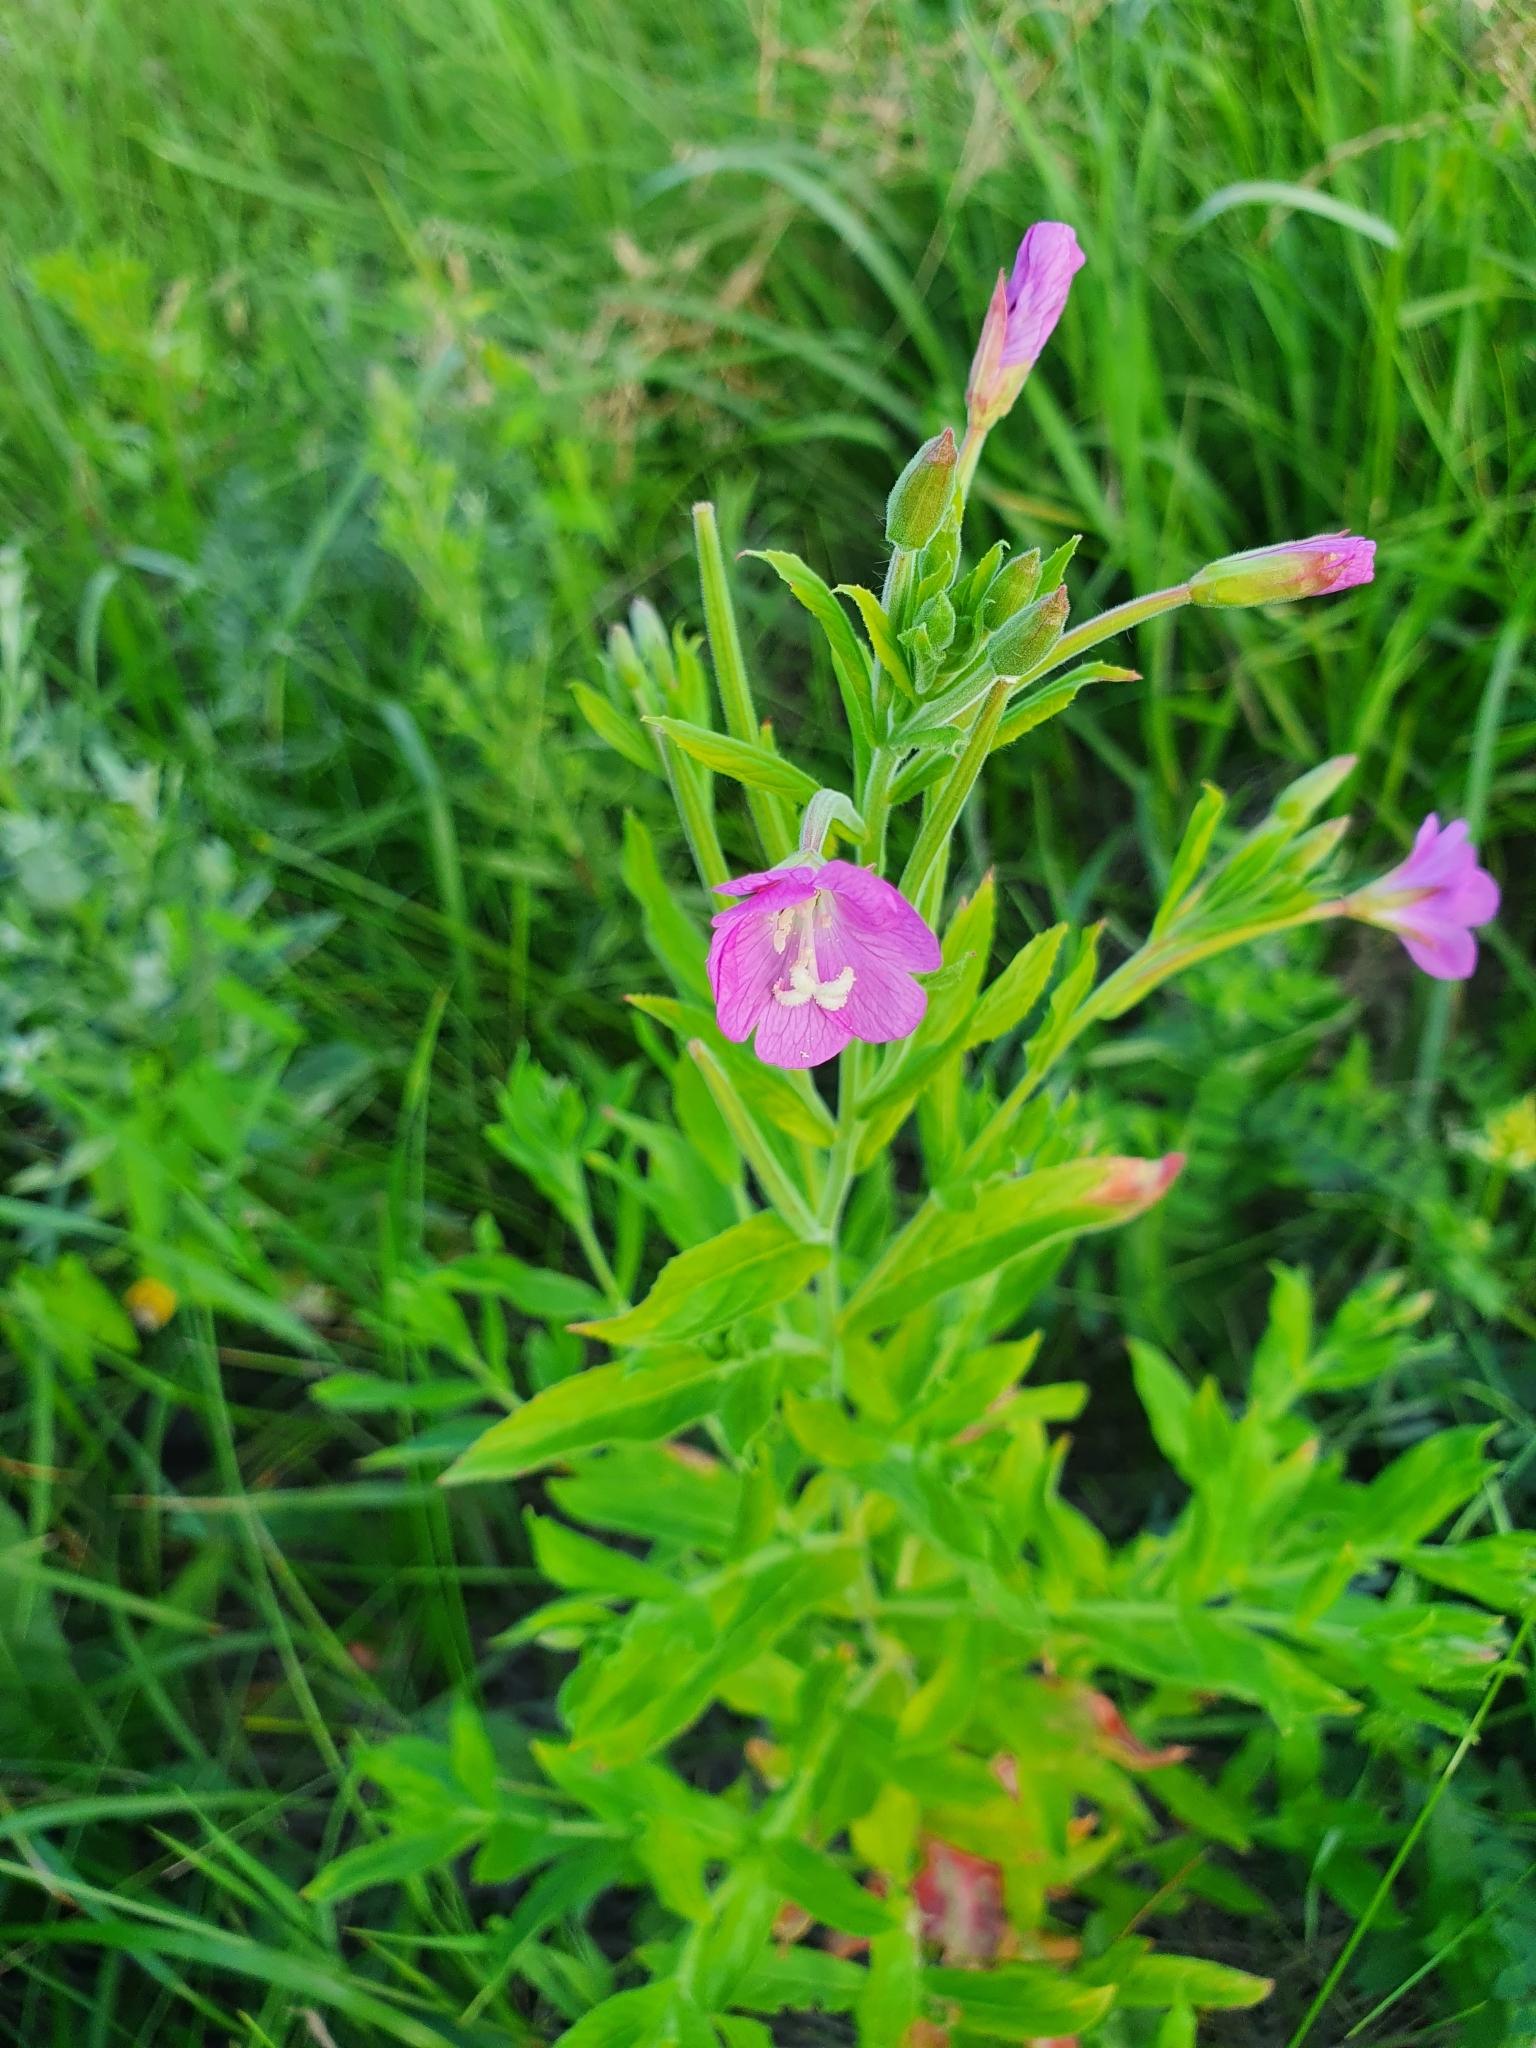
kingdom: Plantae
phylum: Tracheophyta
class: Magnoliopsida
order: Myrtales
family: Onagraceae
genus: Epilobium
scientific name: Epilobium hirsutum
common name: Great willowherb
